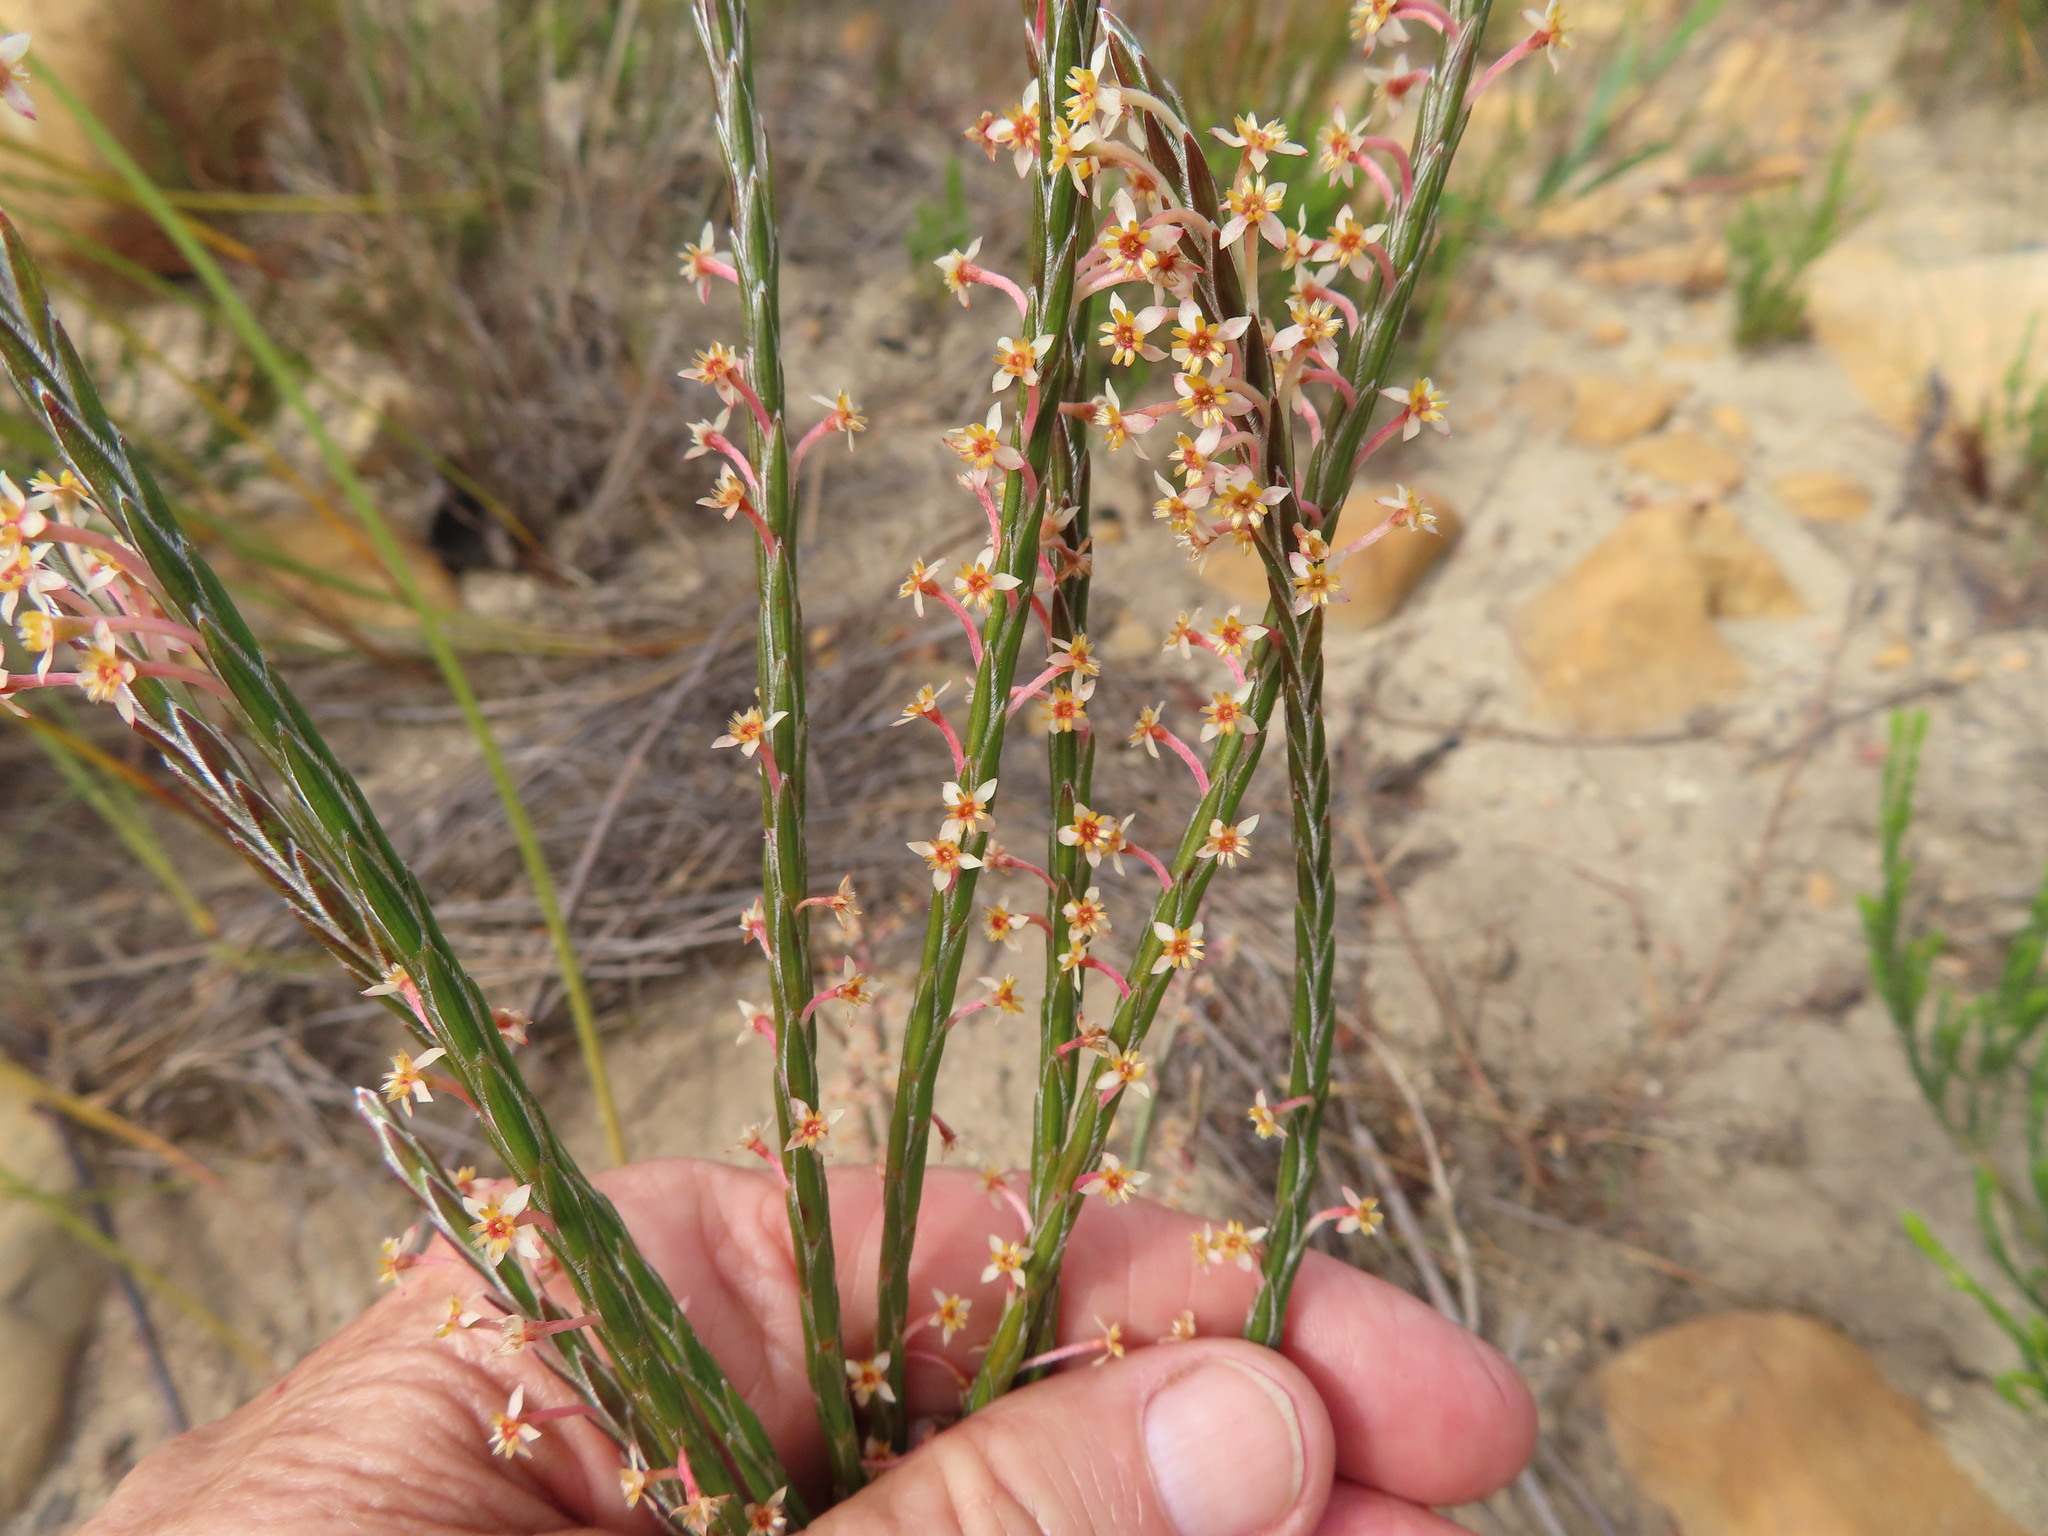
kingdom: Plantae
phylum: Tracheophyta
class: Magnoliopsida
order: Malvales
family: Thymelaeaceae
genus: Struthiola
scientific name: Struthiola ciliata
